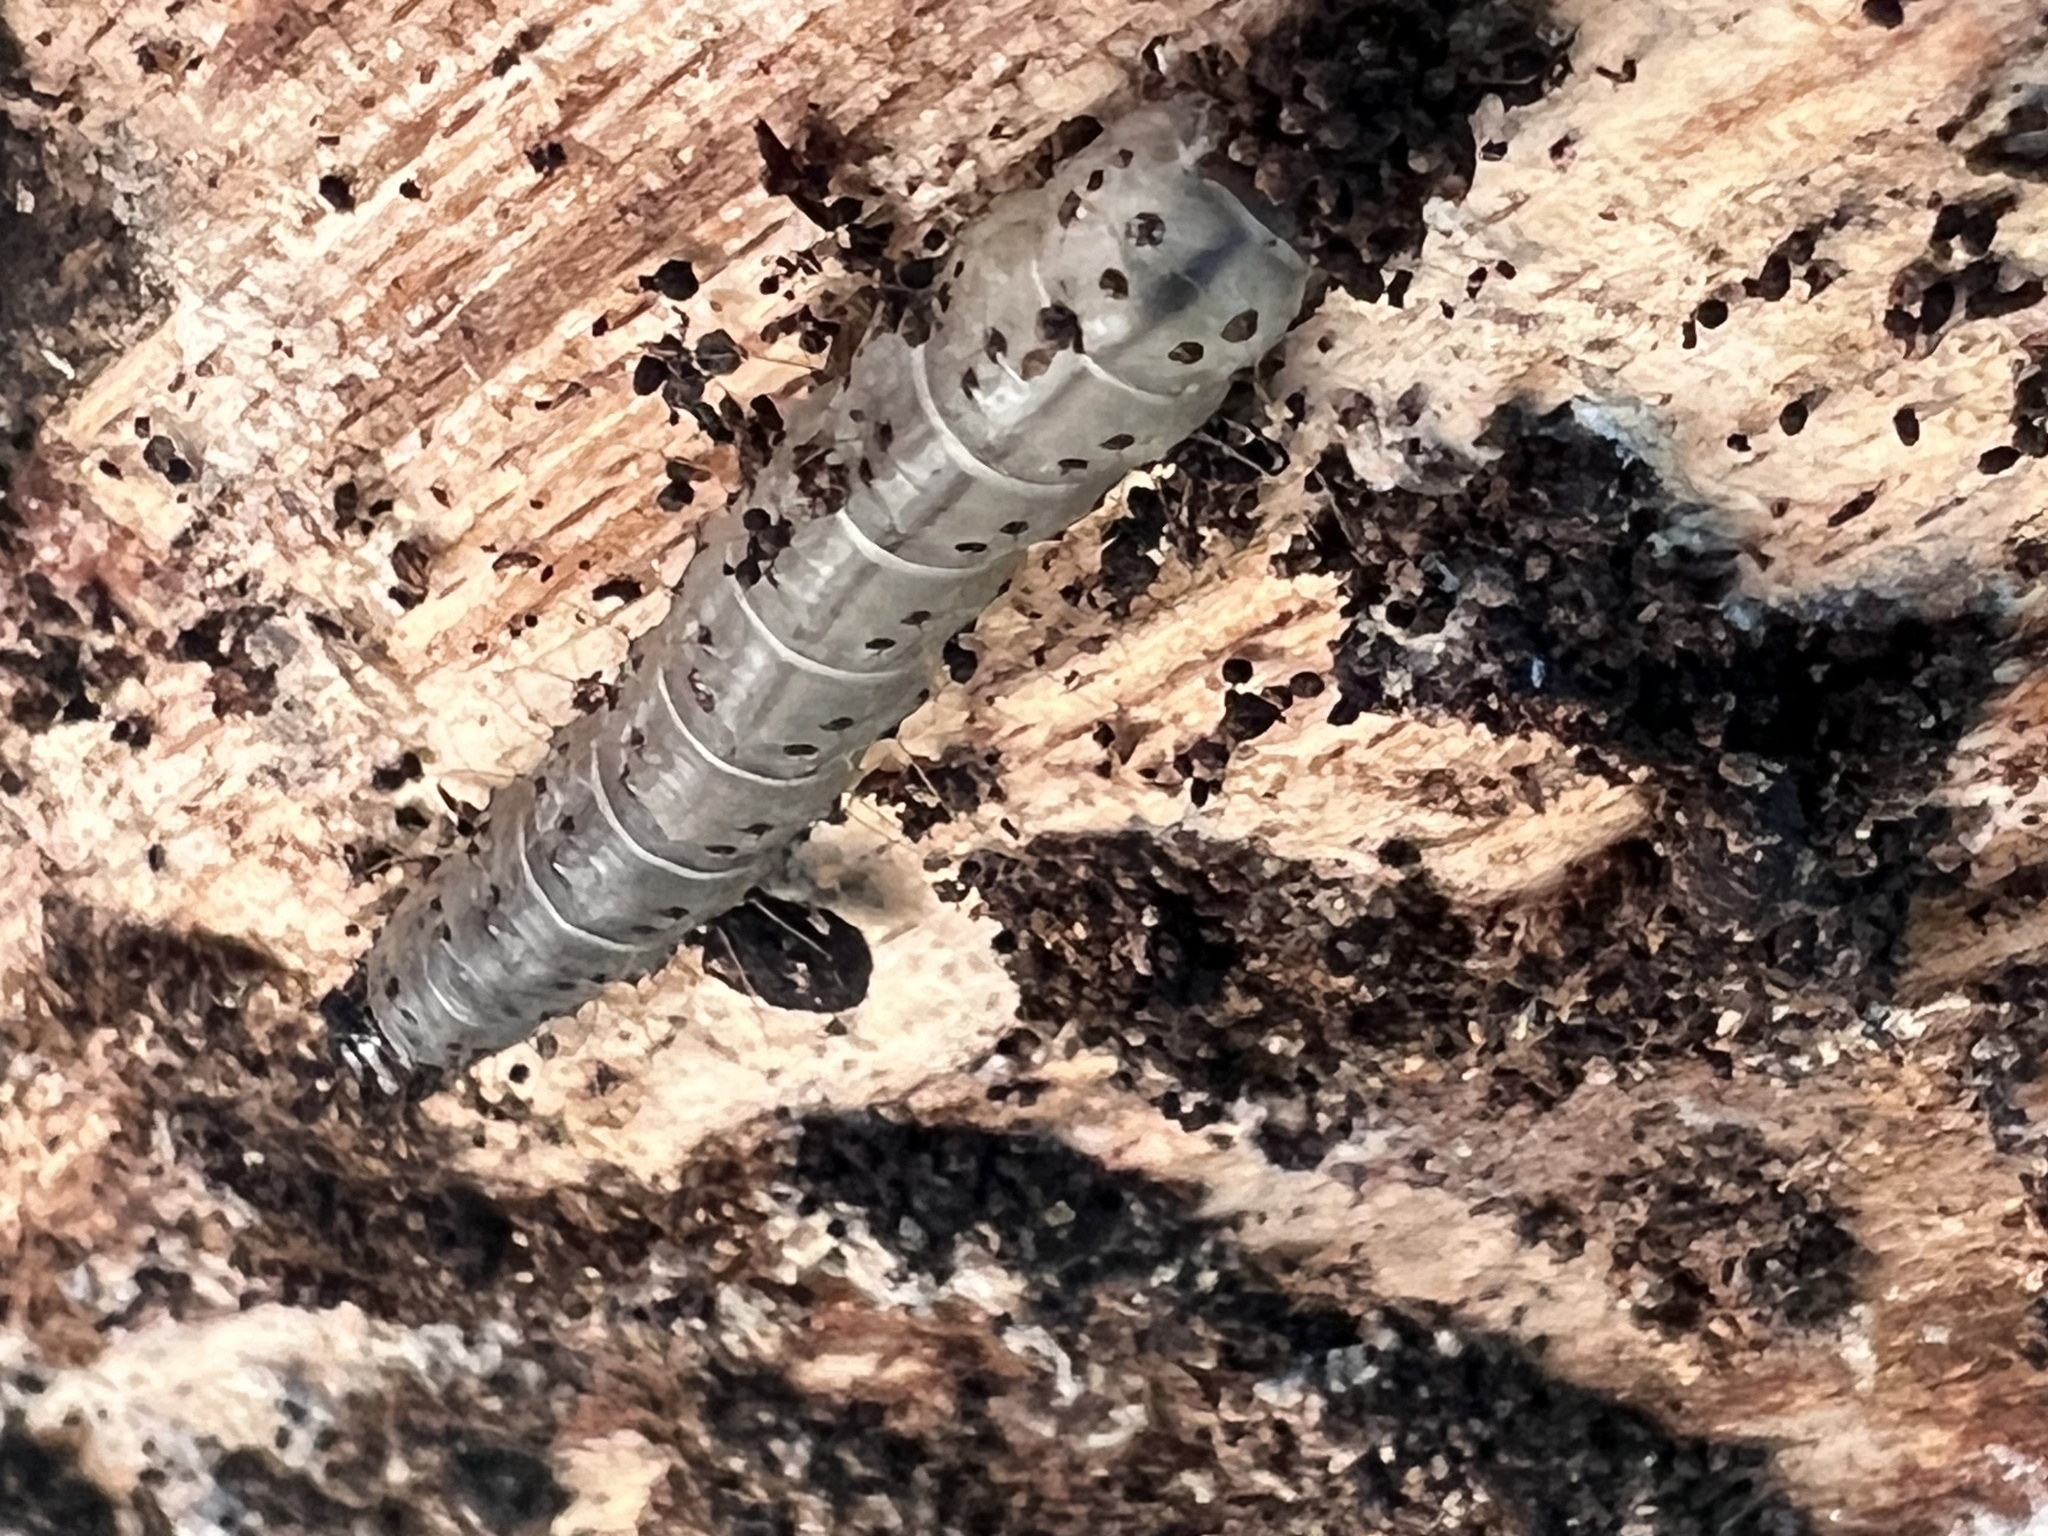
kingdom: Animalia
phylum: Arthropoda
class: Insecta
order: Lepidoptera
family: Erebidae
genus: Scolecocampa
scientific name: Scolecocampa liburna
